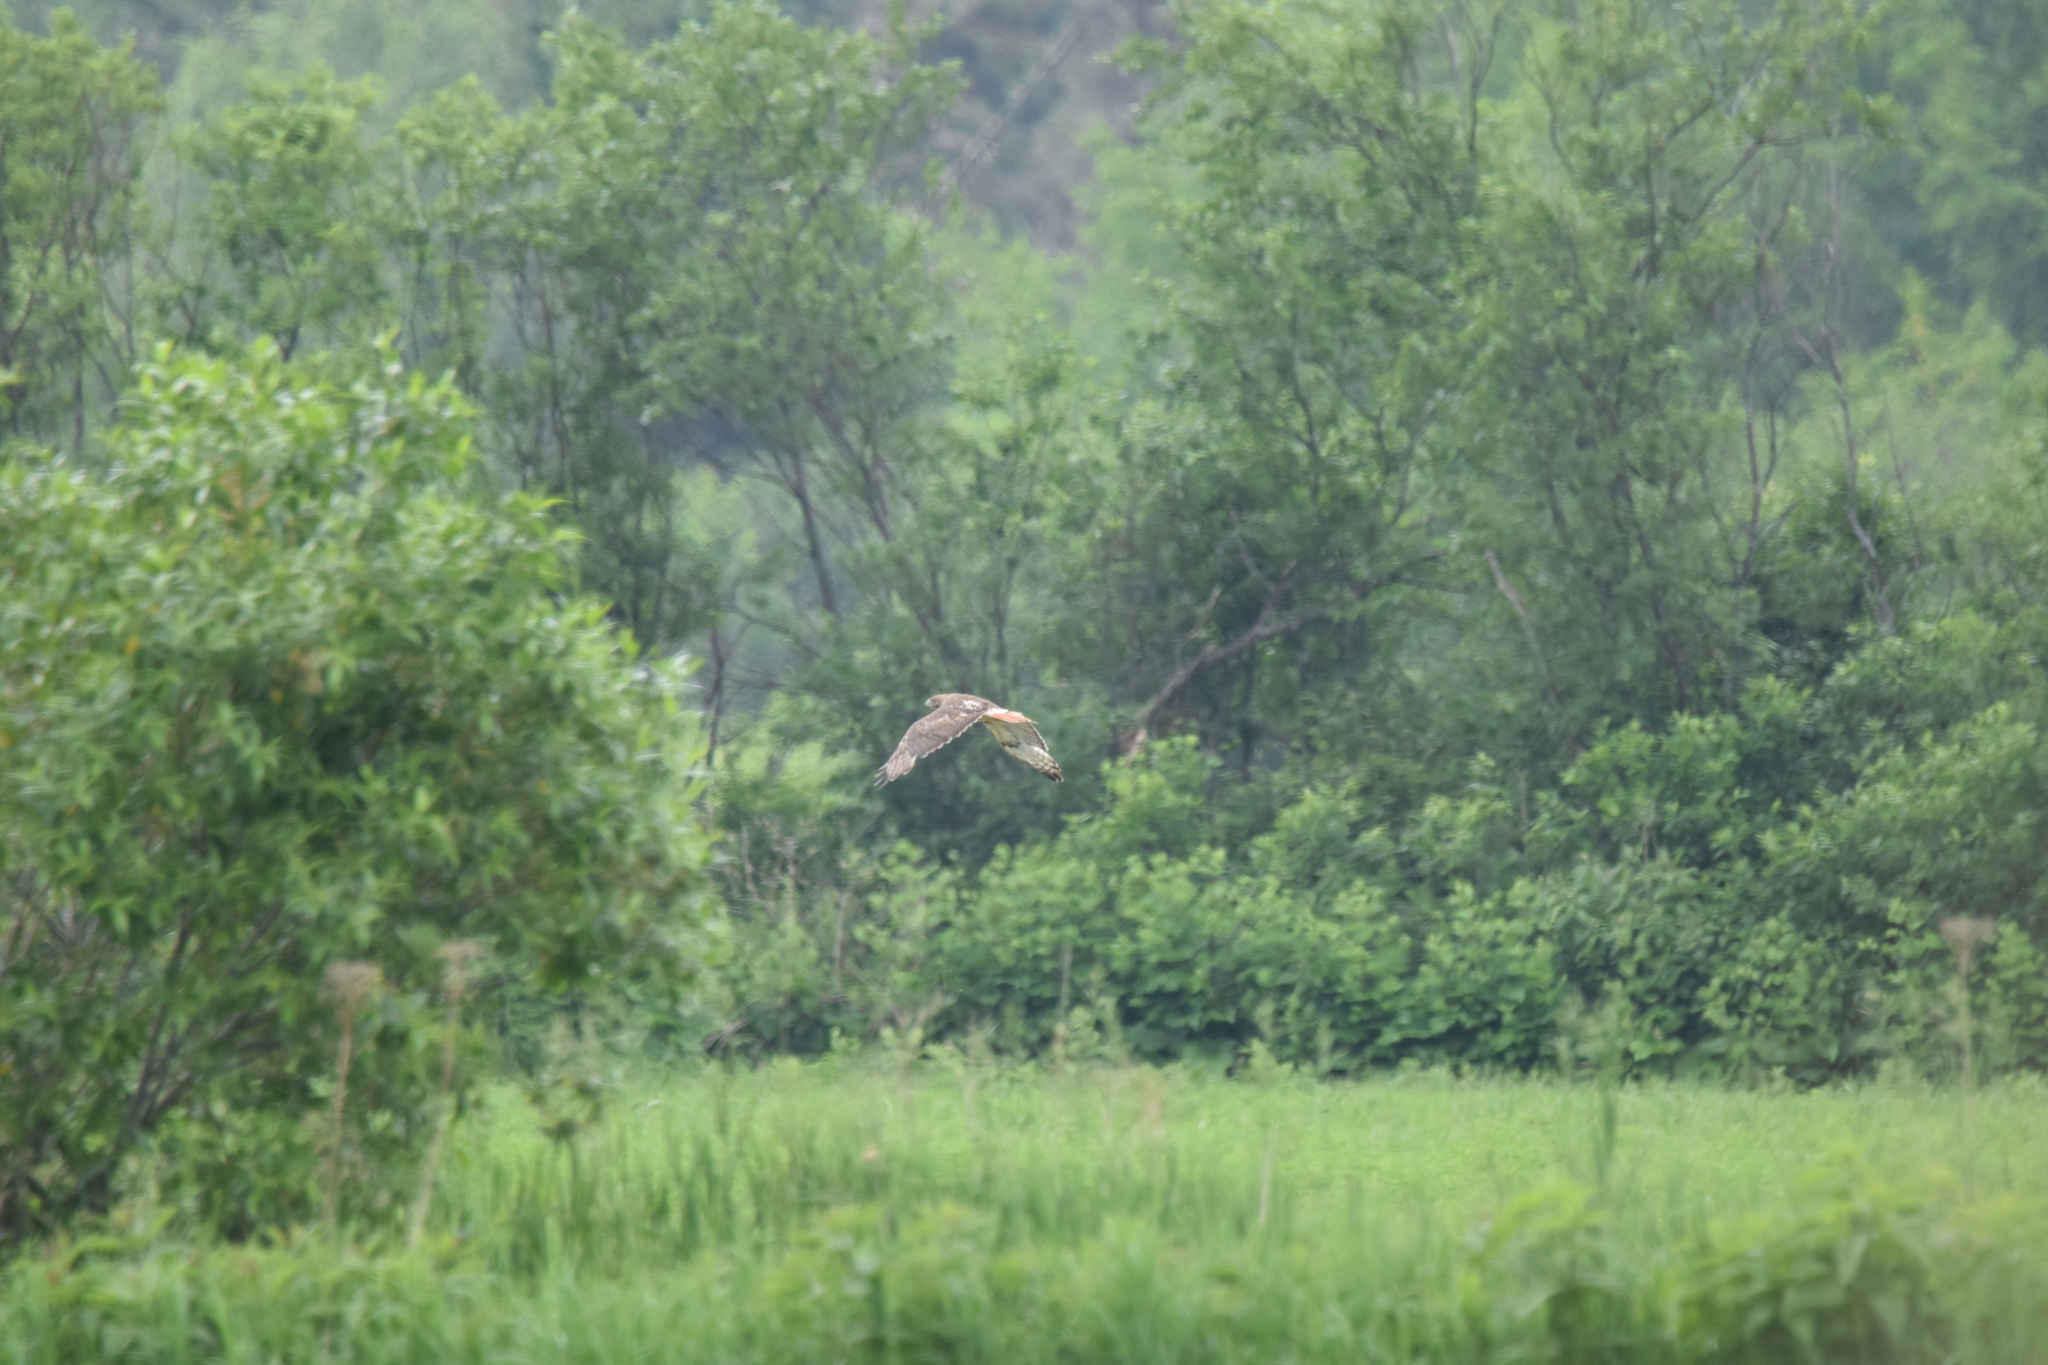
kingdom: Animalia
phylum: Chordata
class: Aves
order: Accipitriformes
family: Accipitridae
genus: Buteo
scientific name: Buteo jamaicensis
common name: Red-tailed hawk
